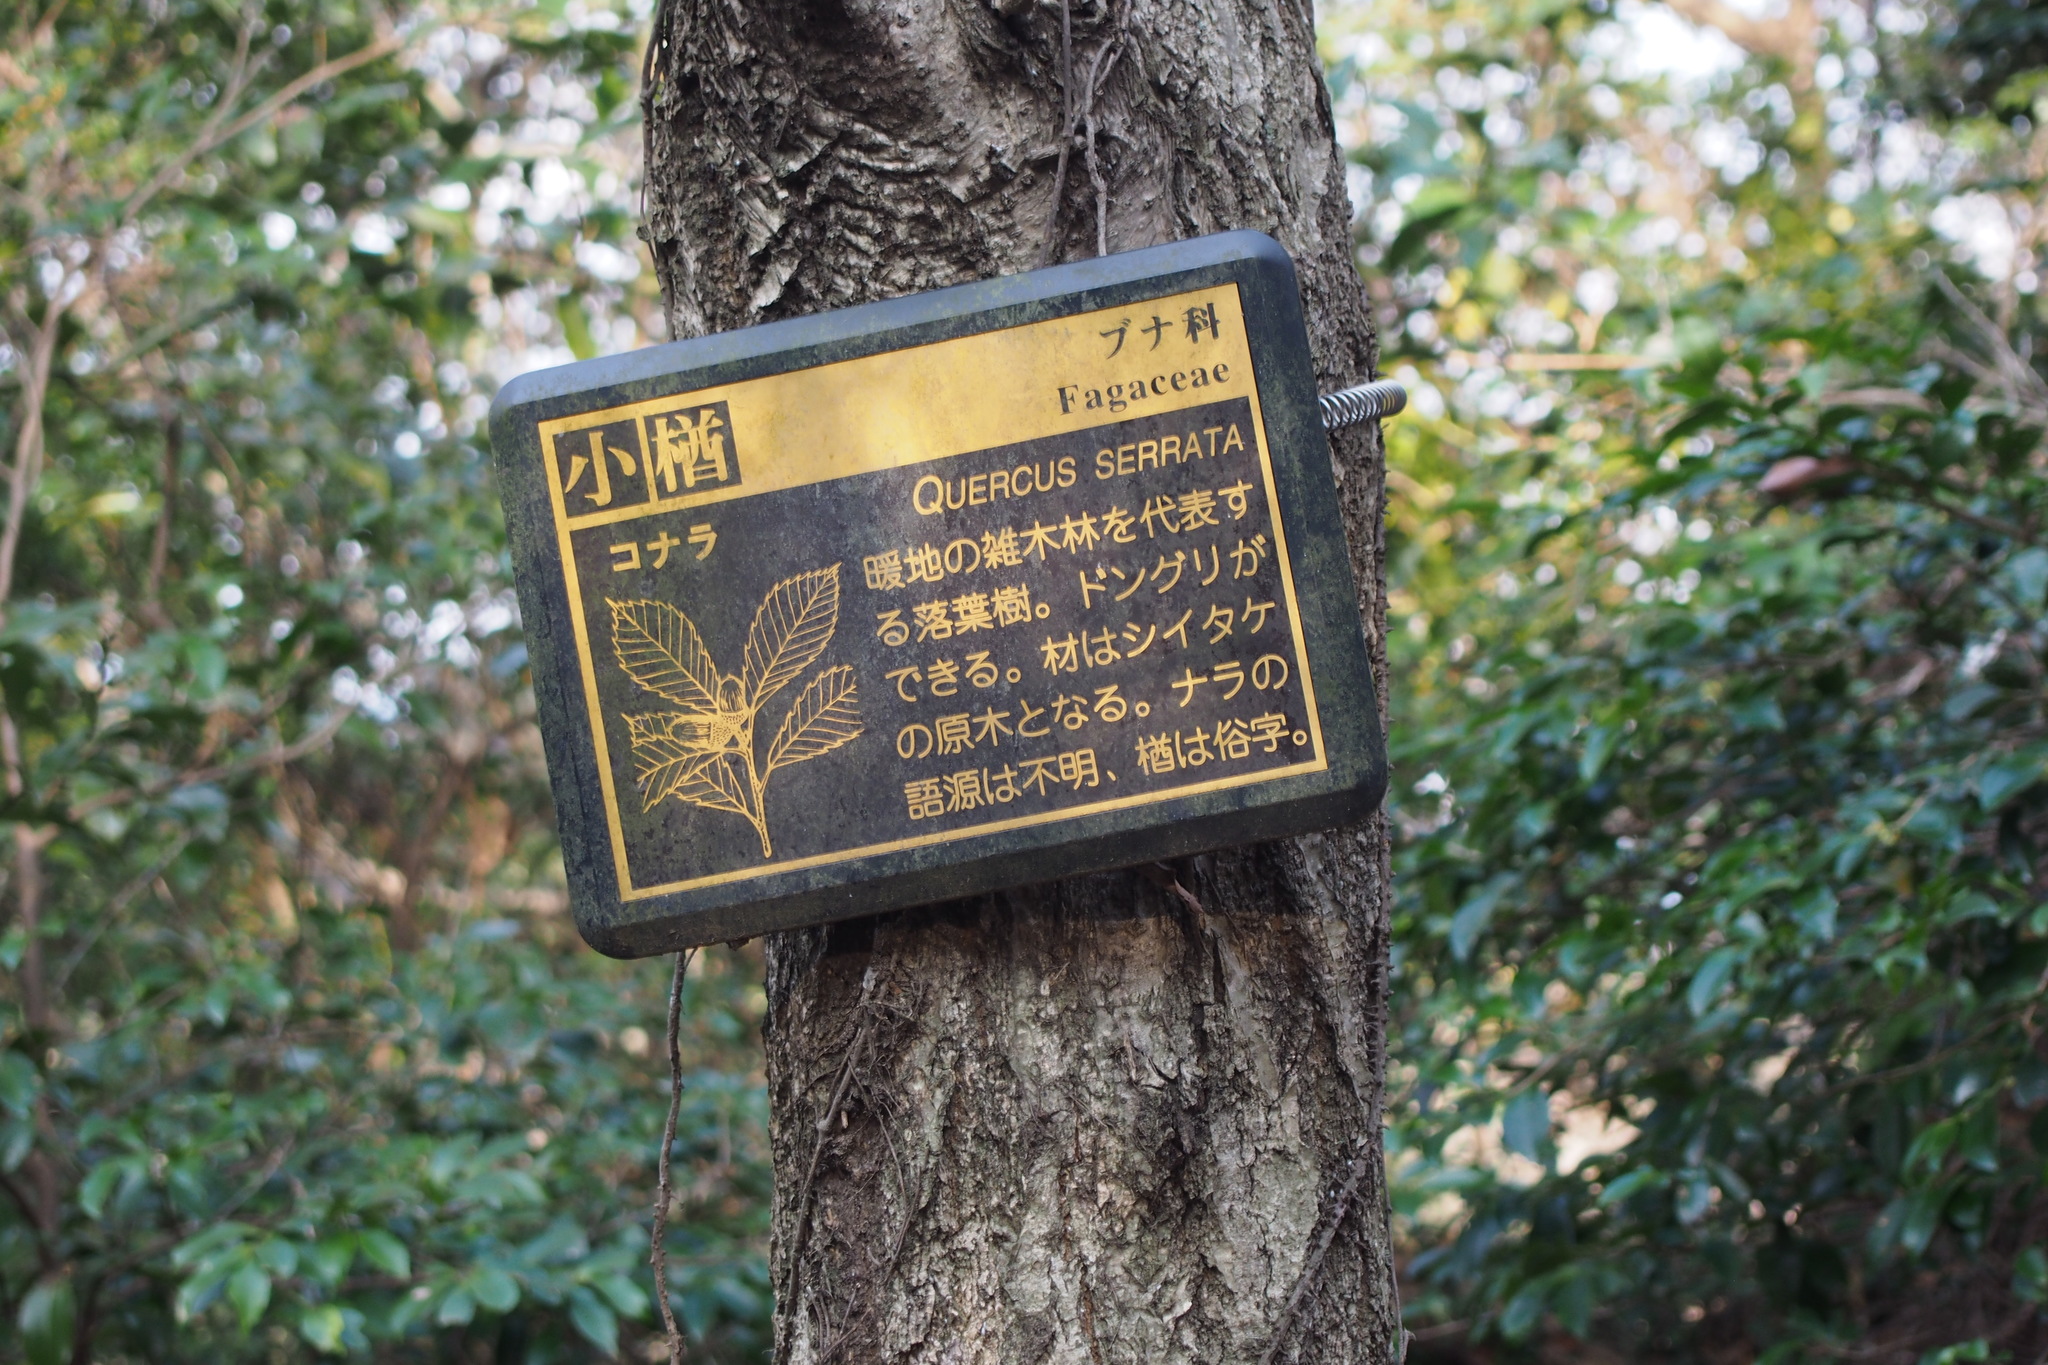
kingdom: Plantae
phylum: Tracheophyta
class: Magnoliopsida
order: Fagales
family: Fagaceae
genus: Quercus
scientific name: Quercus serrata
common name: Bao li
